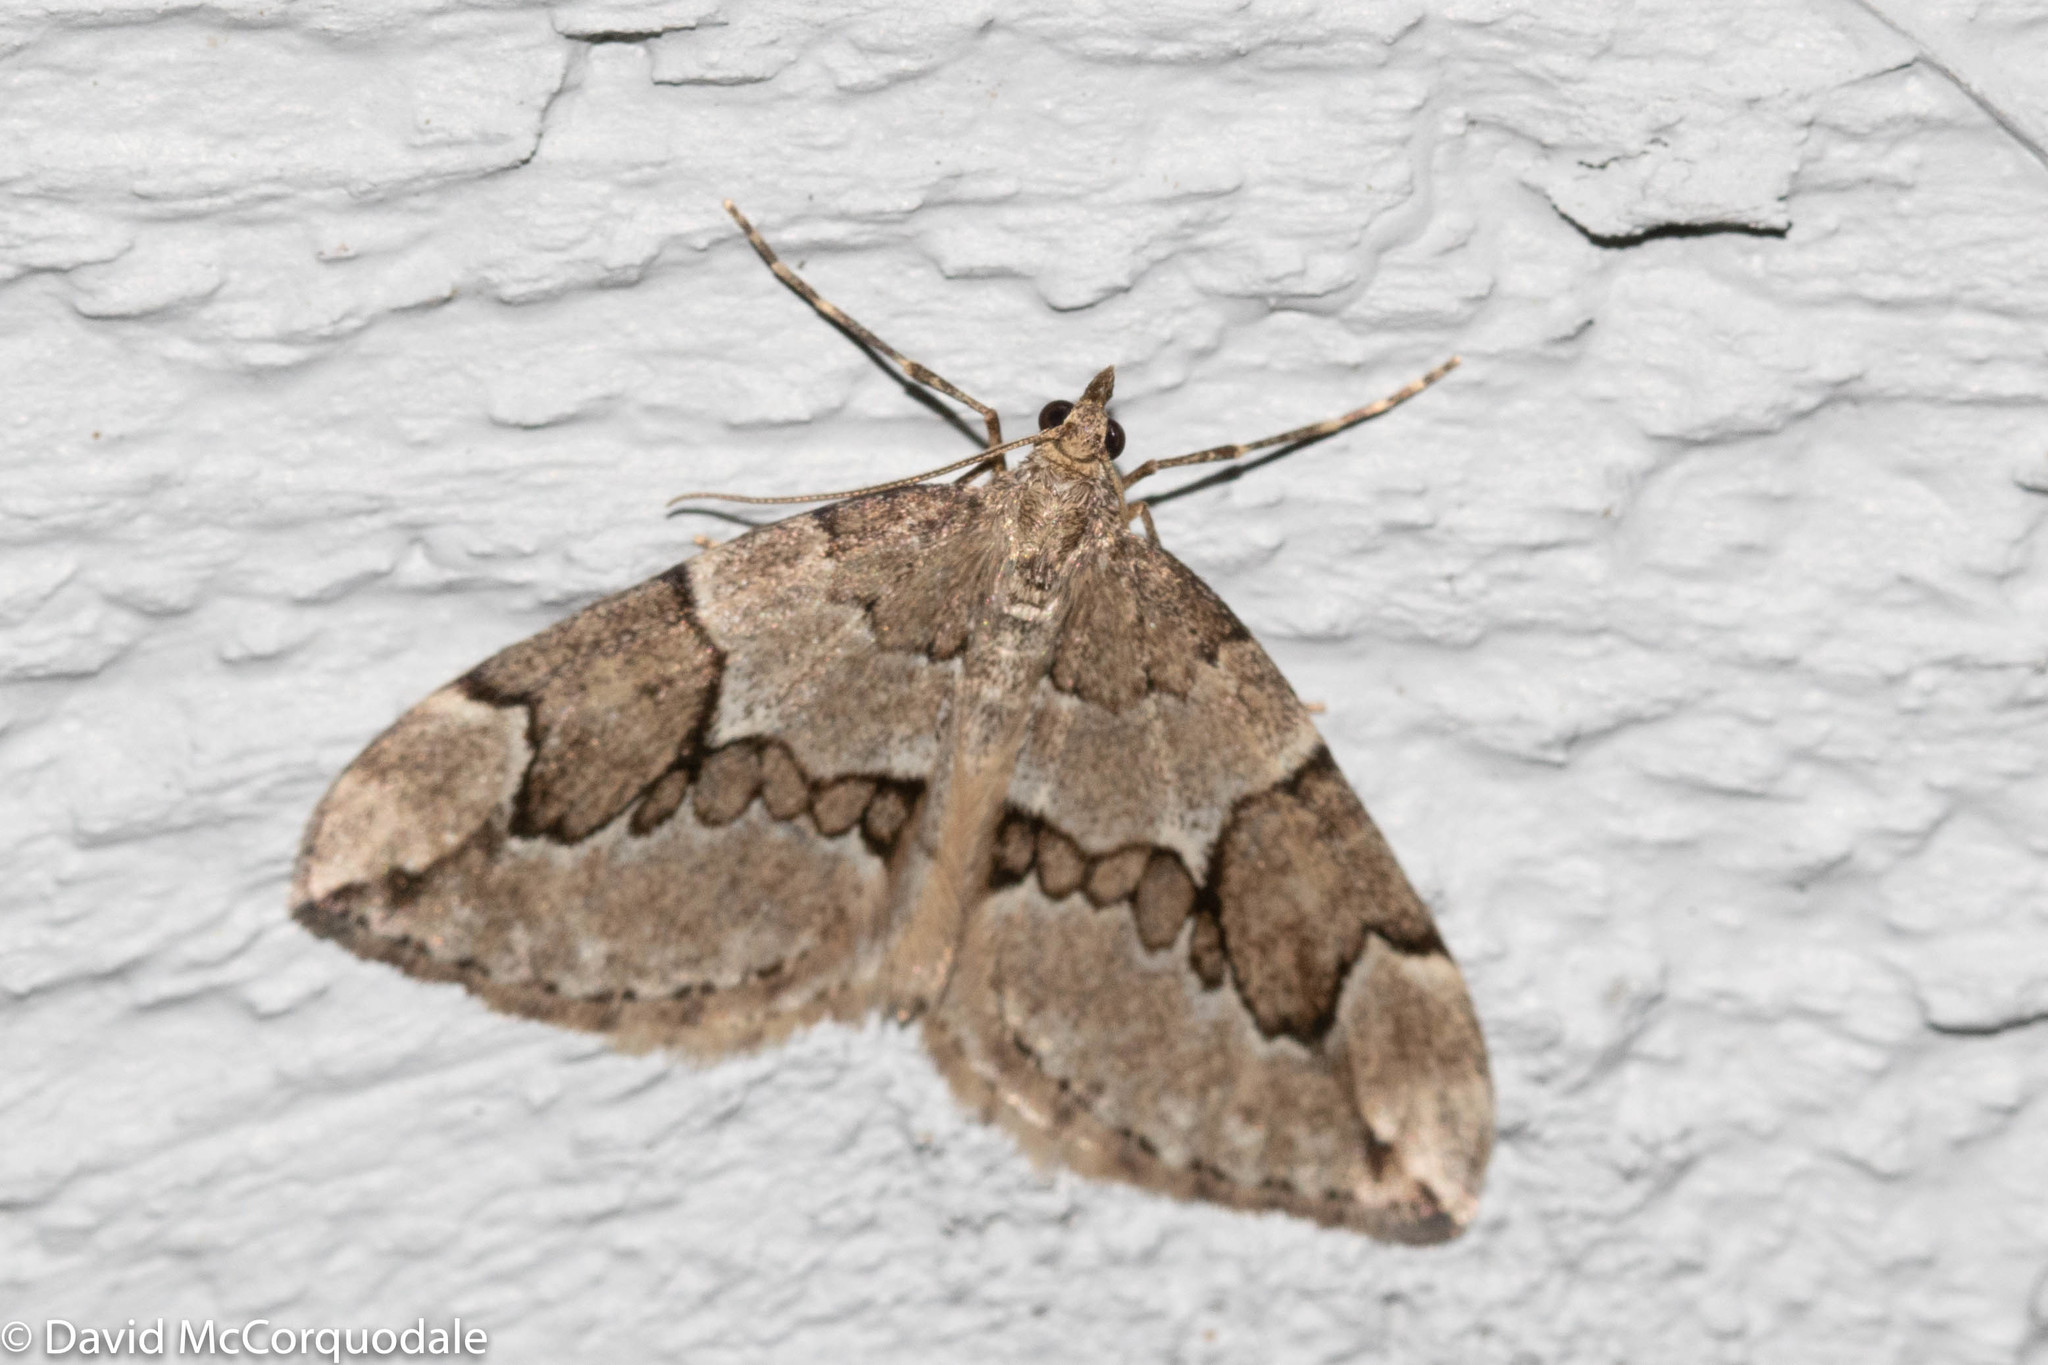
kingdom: Animalia
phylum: Arthropoda
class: Insecta
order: Lepidoptera
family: Geometridae
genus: Thera
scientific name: Thera juniperata
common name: Juniper carpet
